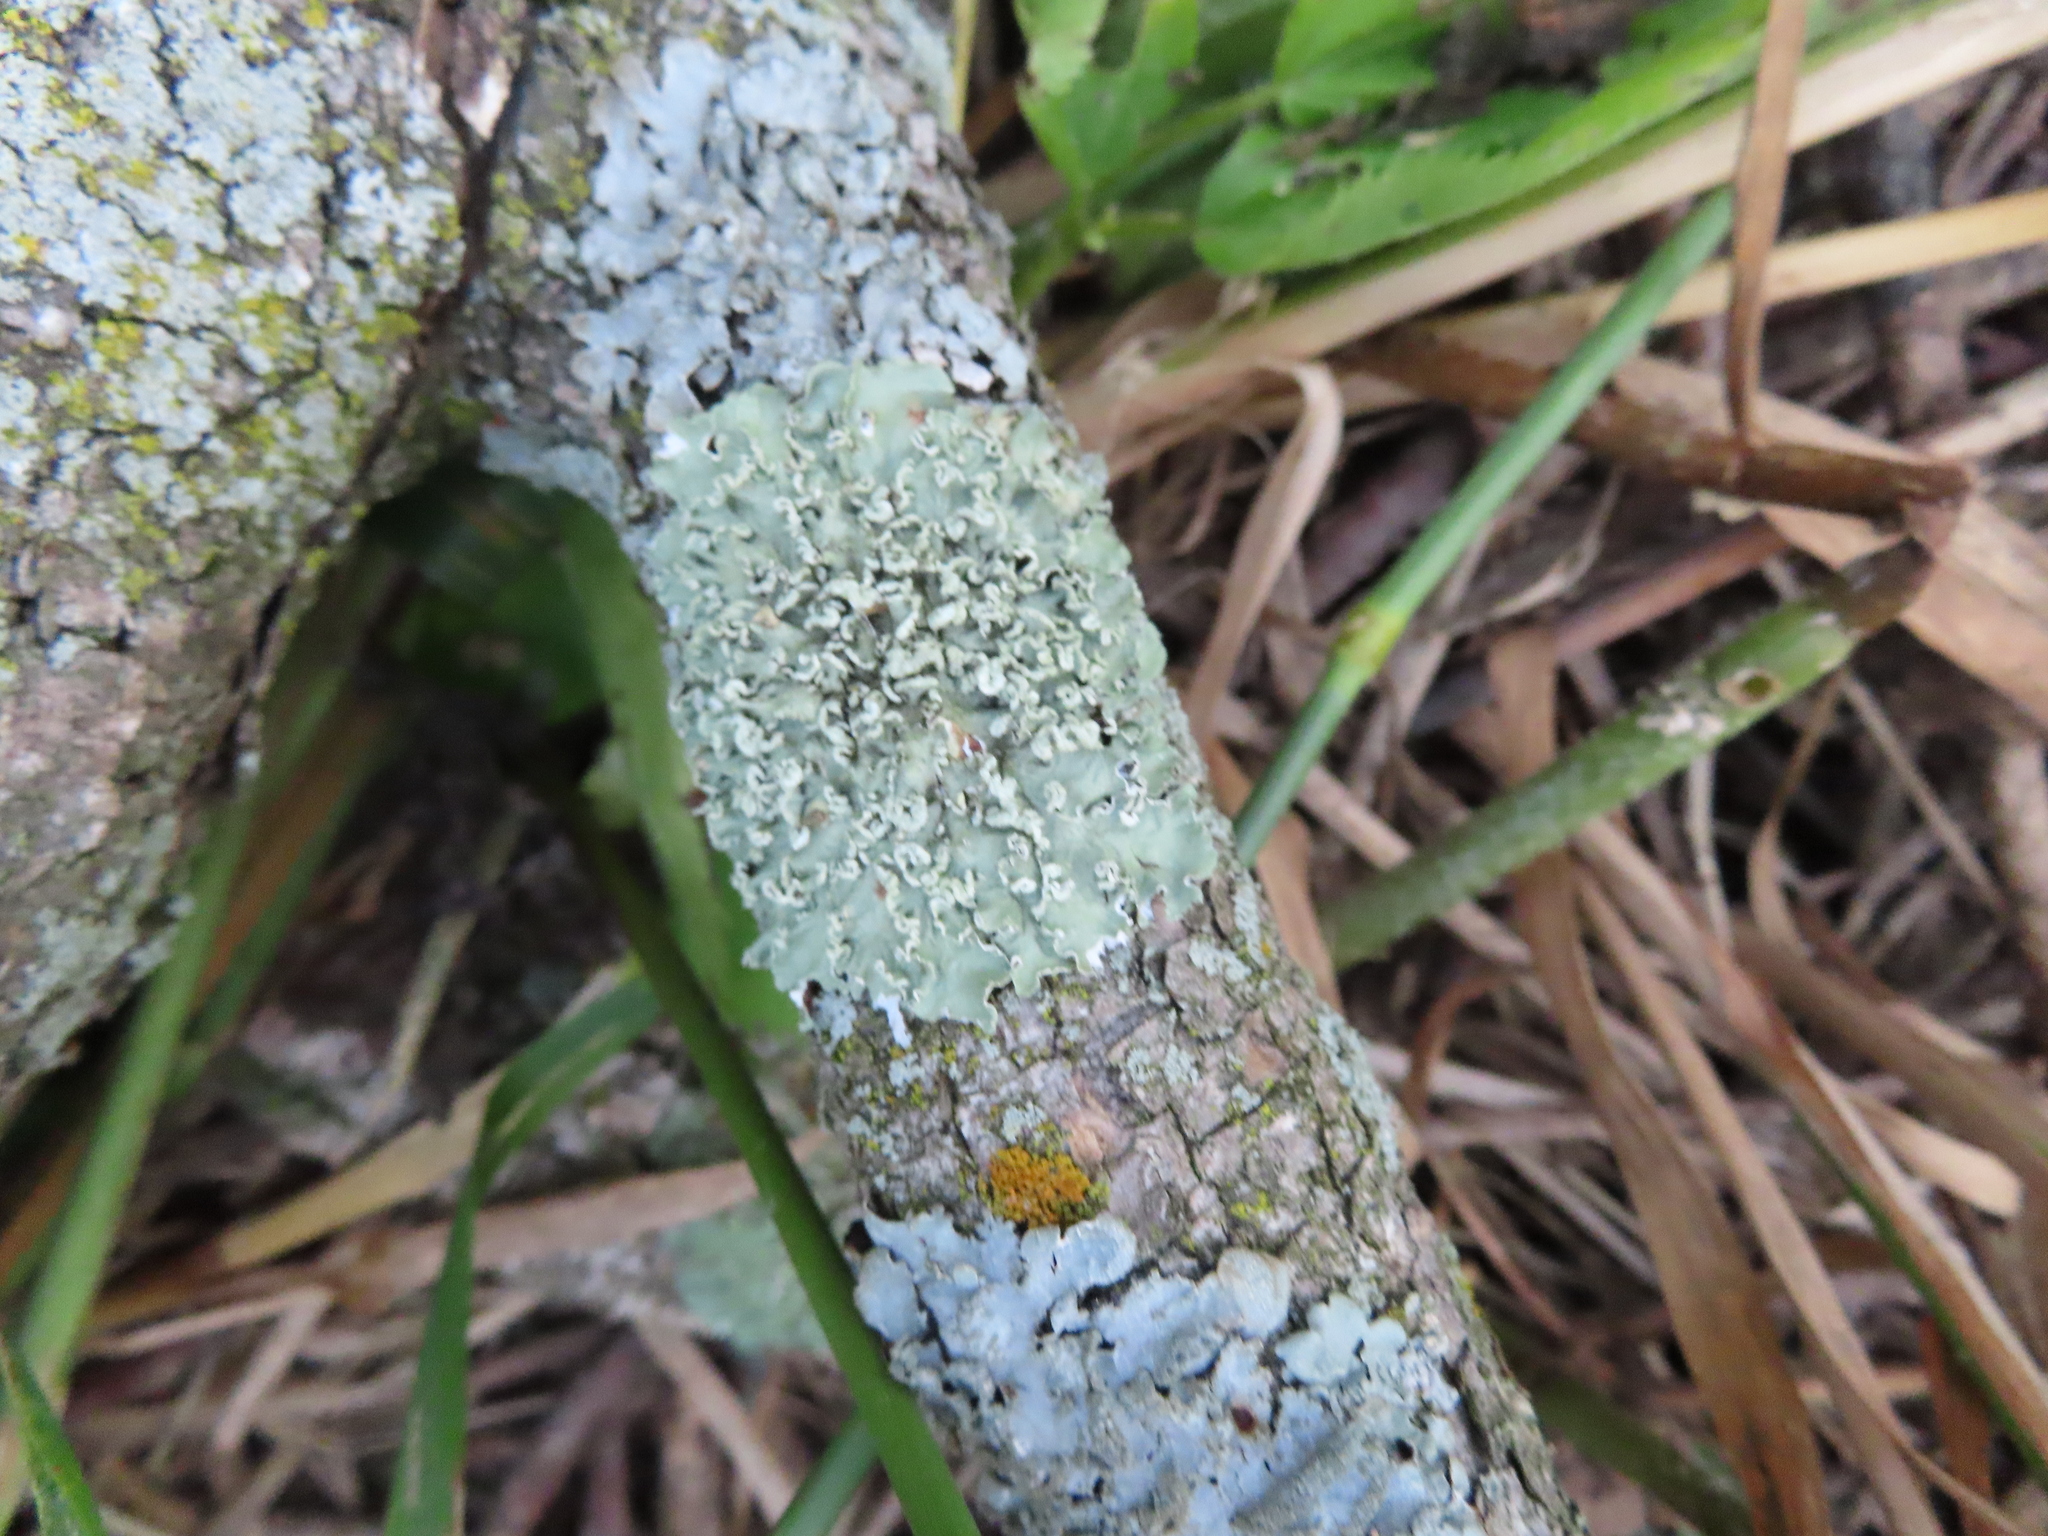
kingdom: Fungi
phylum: Ascomycota
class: Lecanoromycetes
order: Lecanorales
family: Parmeliaceae
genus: Flavopunctelia
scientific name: Flavopunctelia soredica
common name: Powder-edged speckled greenshield
